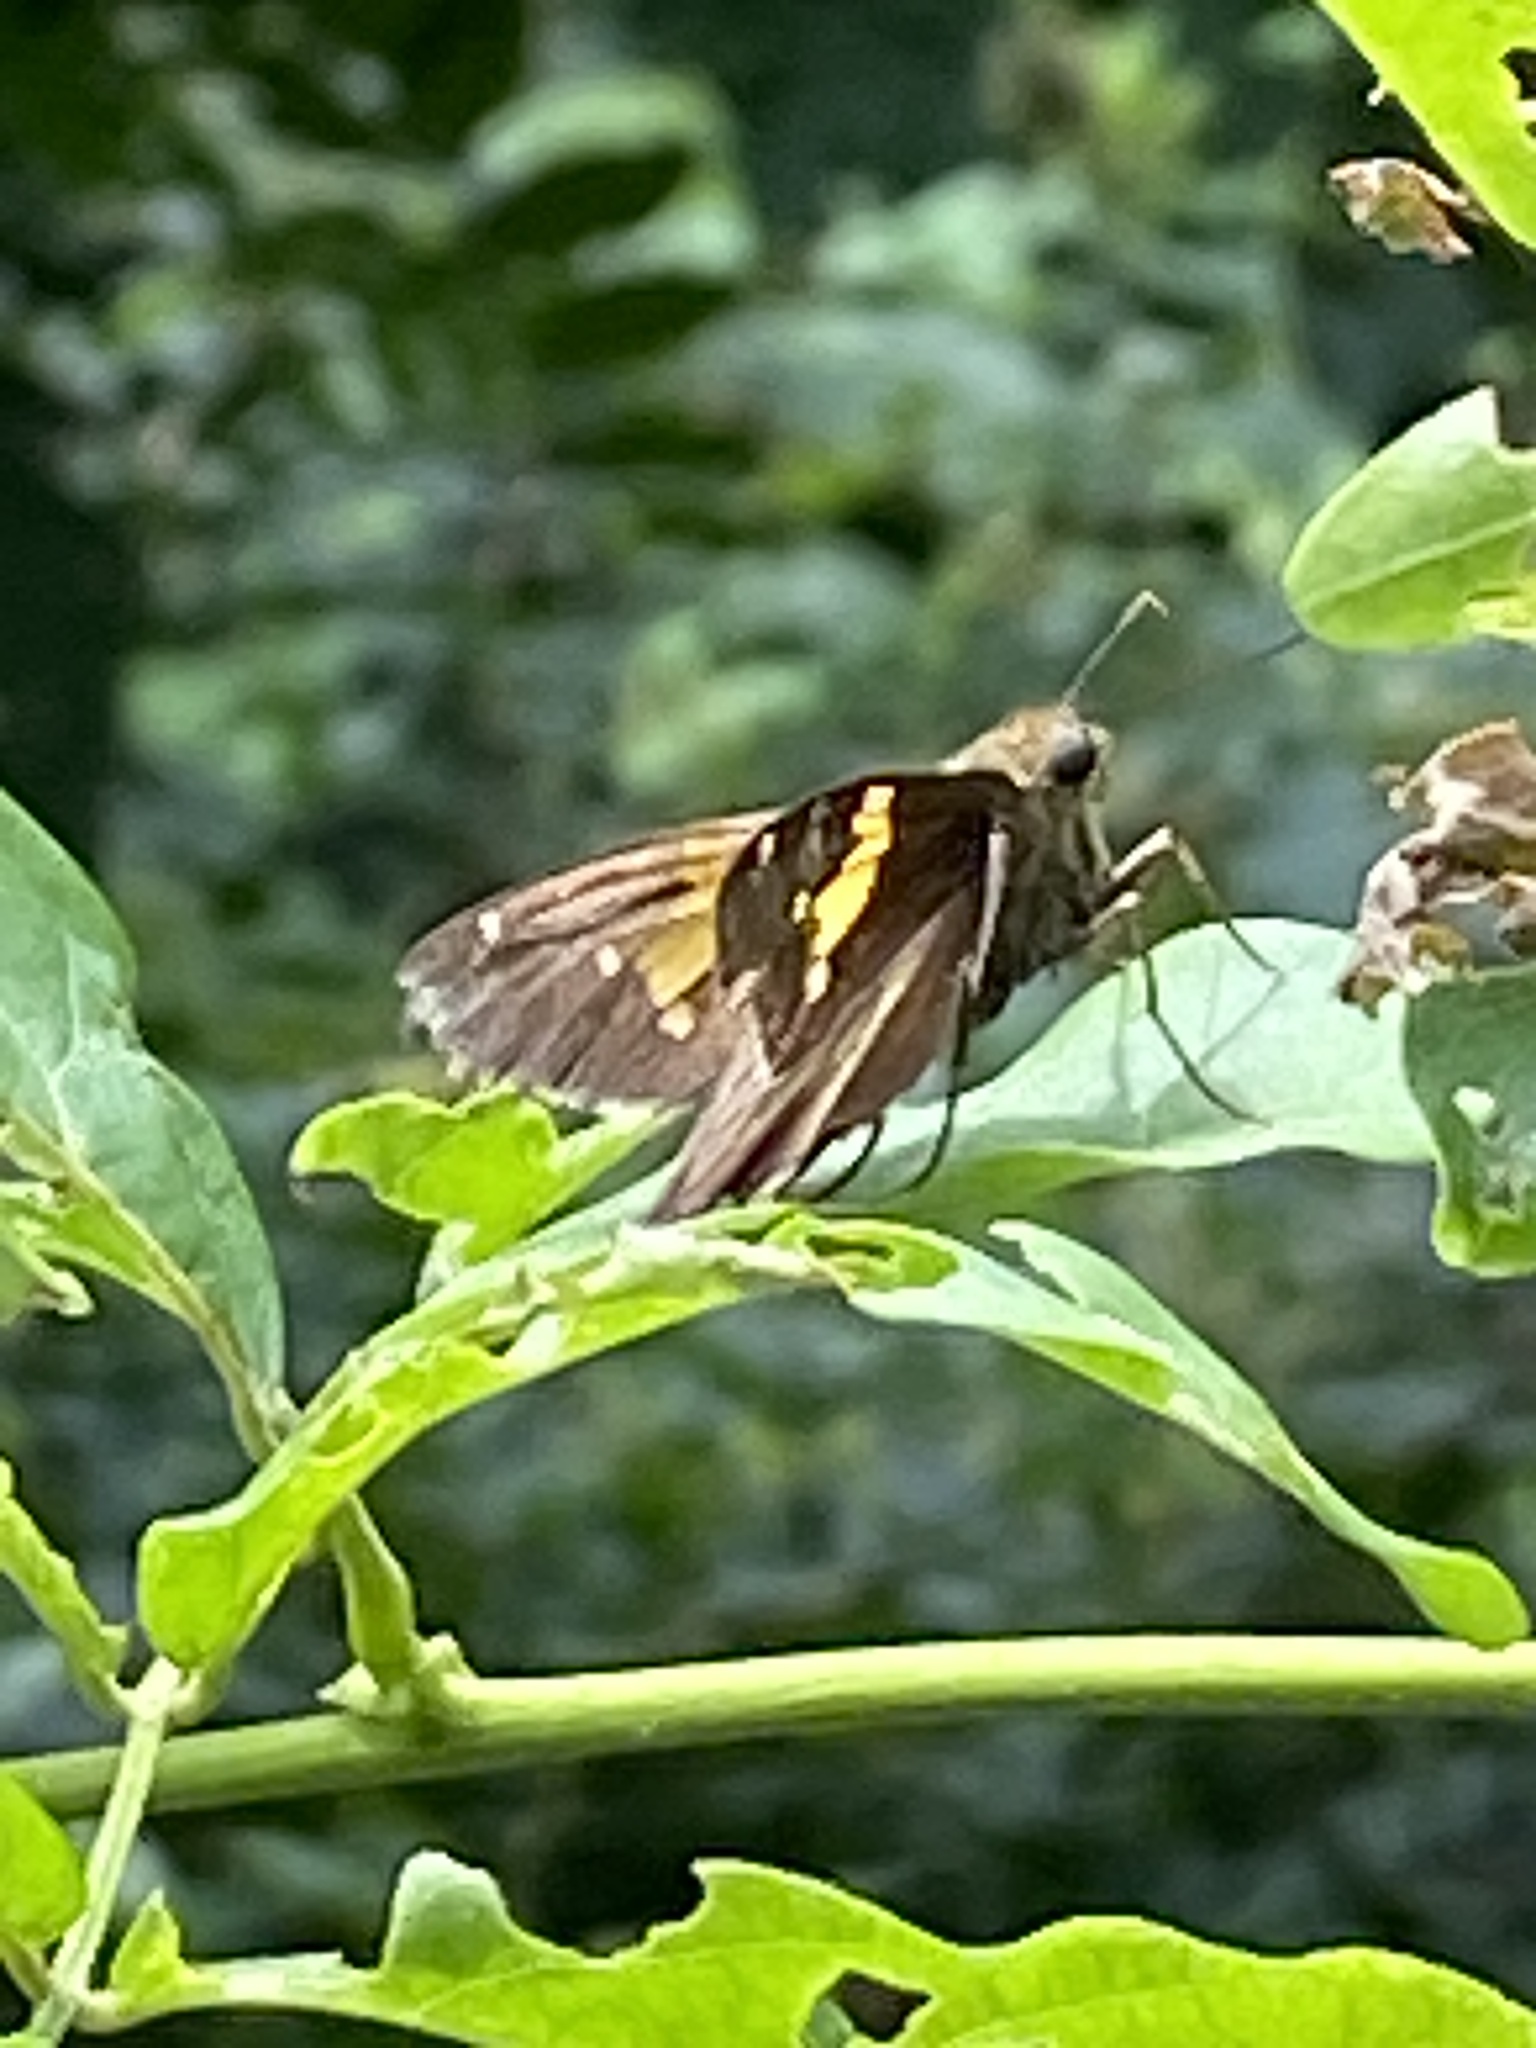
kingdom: Animalia
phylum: Arthropoda
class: Insecta
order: Lepidoptera
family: Hesperiidae
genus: Epargyreus
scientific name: Epargyreus clarus
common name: Silver-spotted skipper
